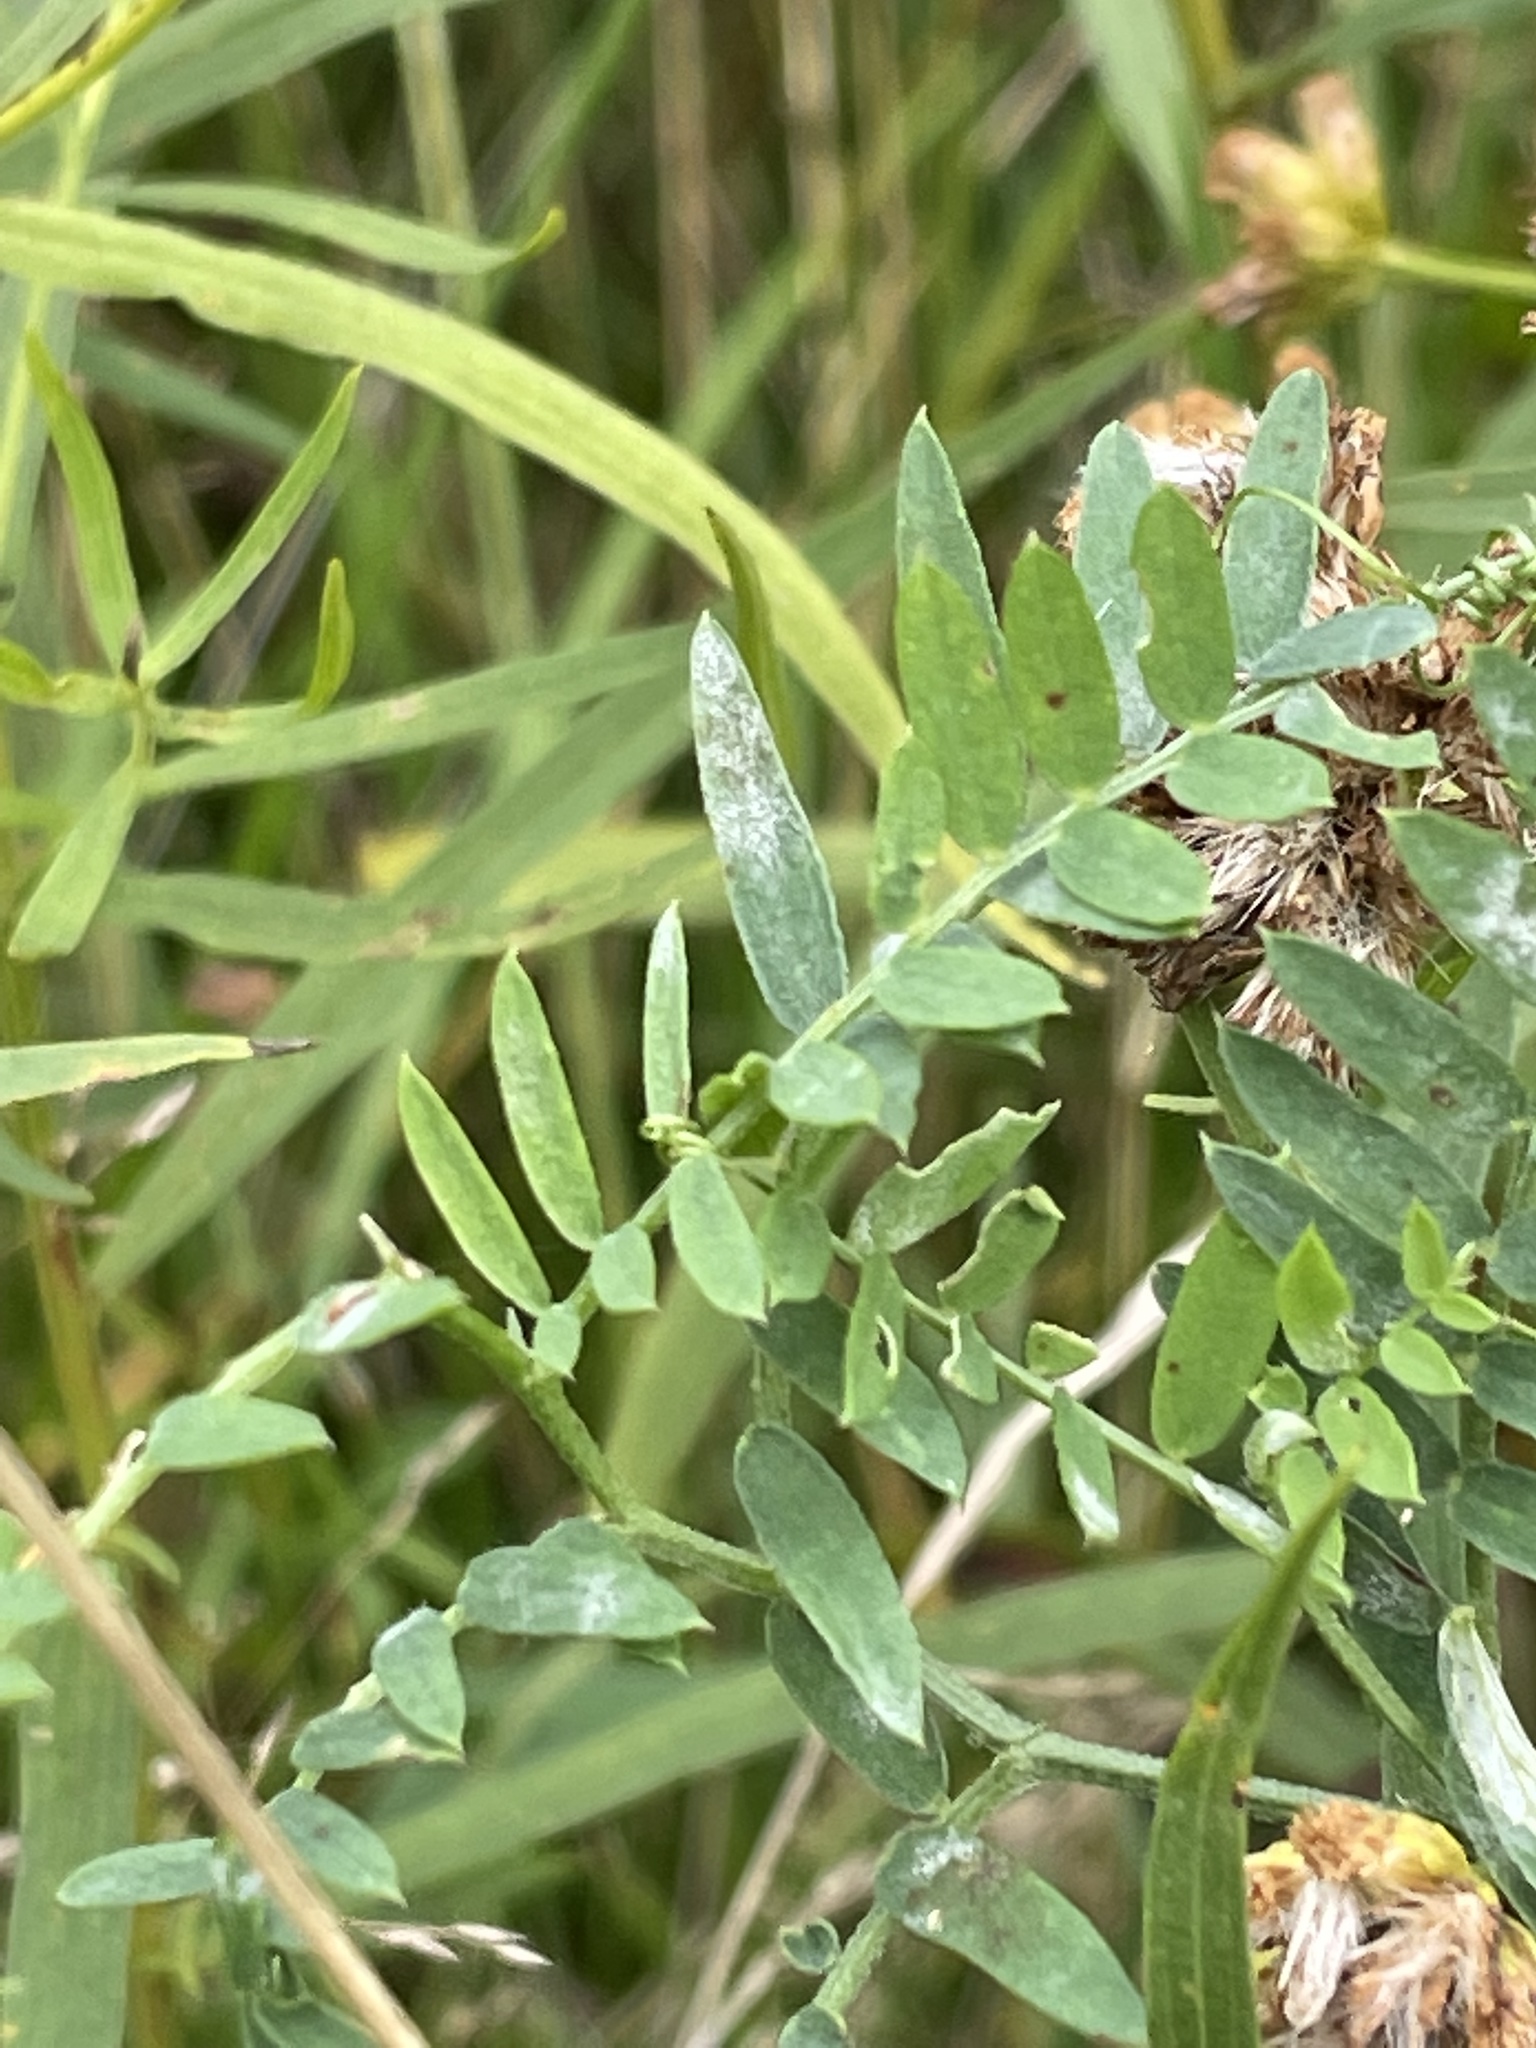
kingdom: Plantae
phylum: Tracheophyta
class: Magnoliopsida
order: Fabales
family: Fabaceae
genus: Vicia
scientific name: Vicia cracca
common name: Bird vetch
